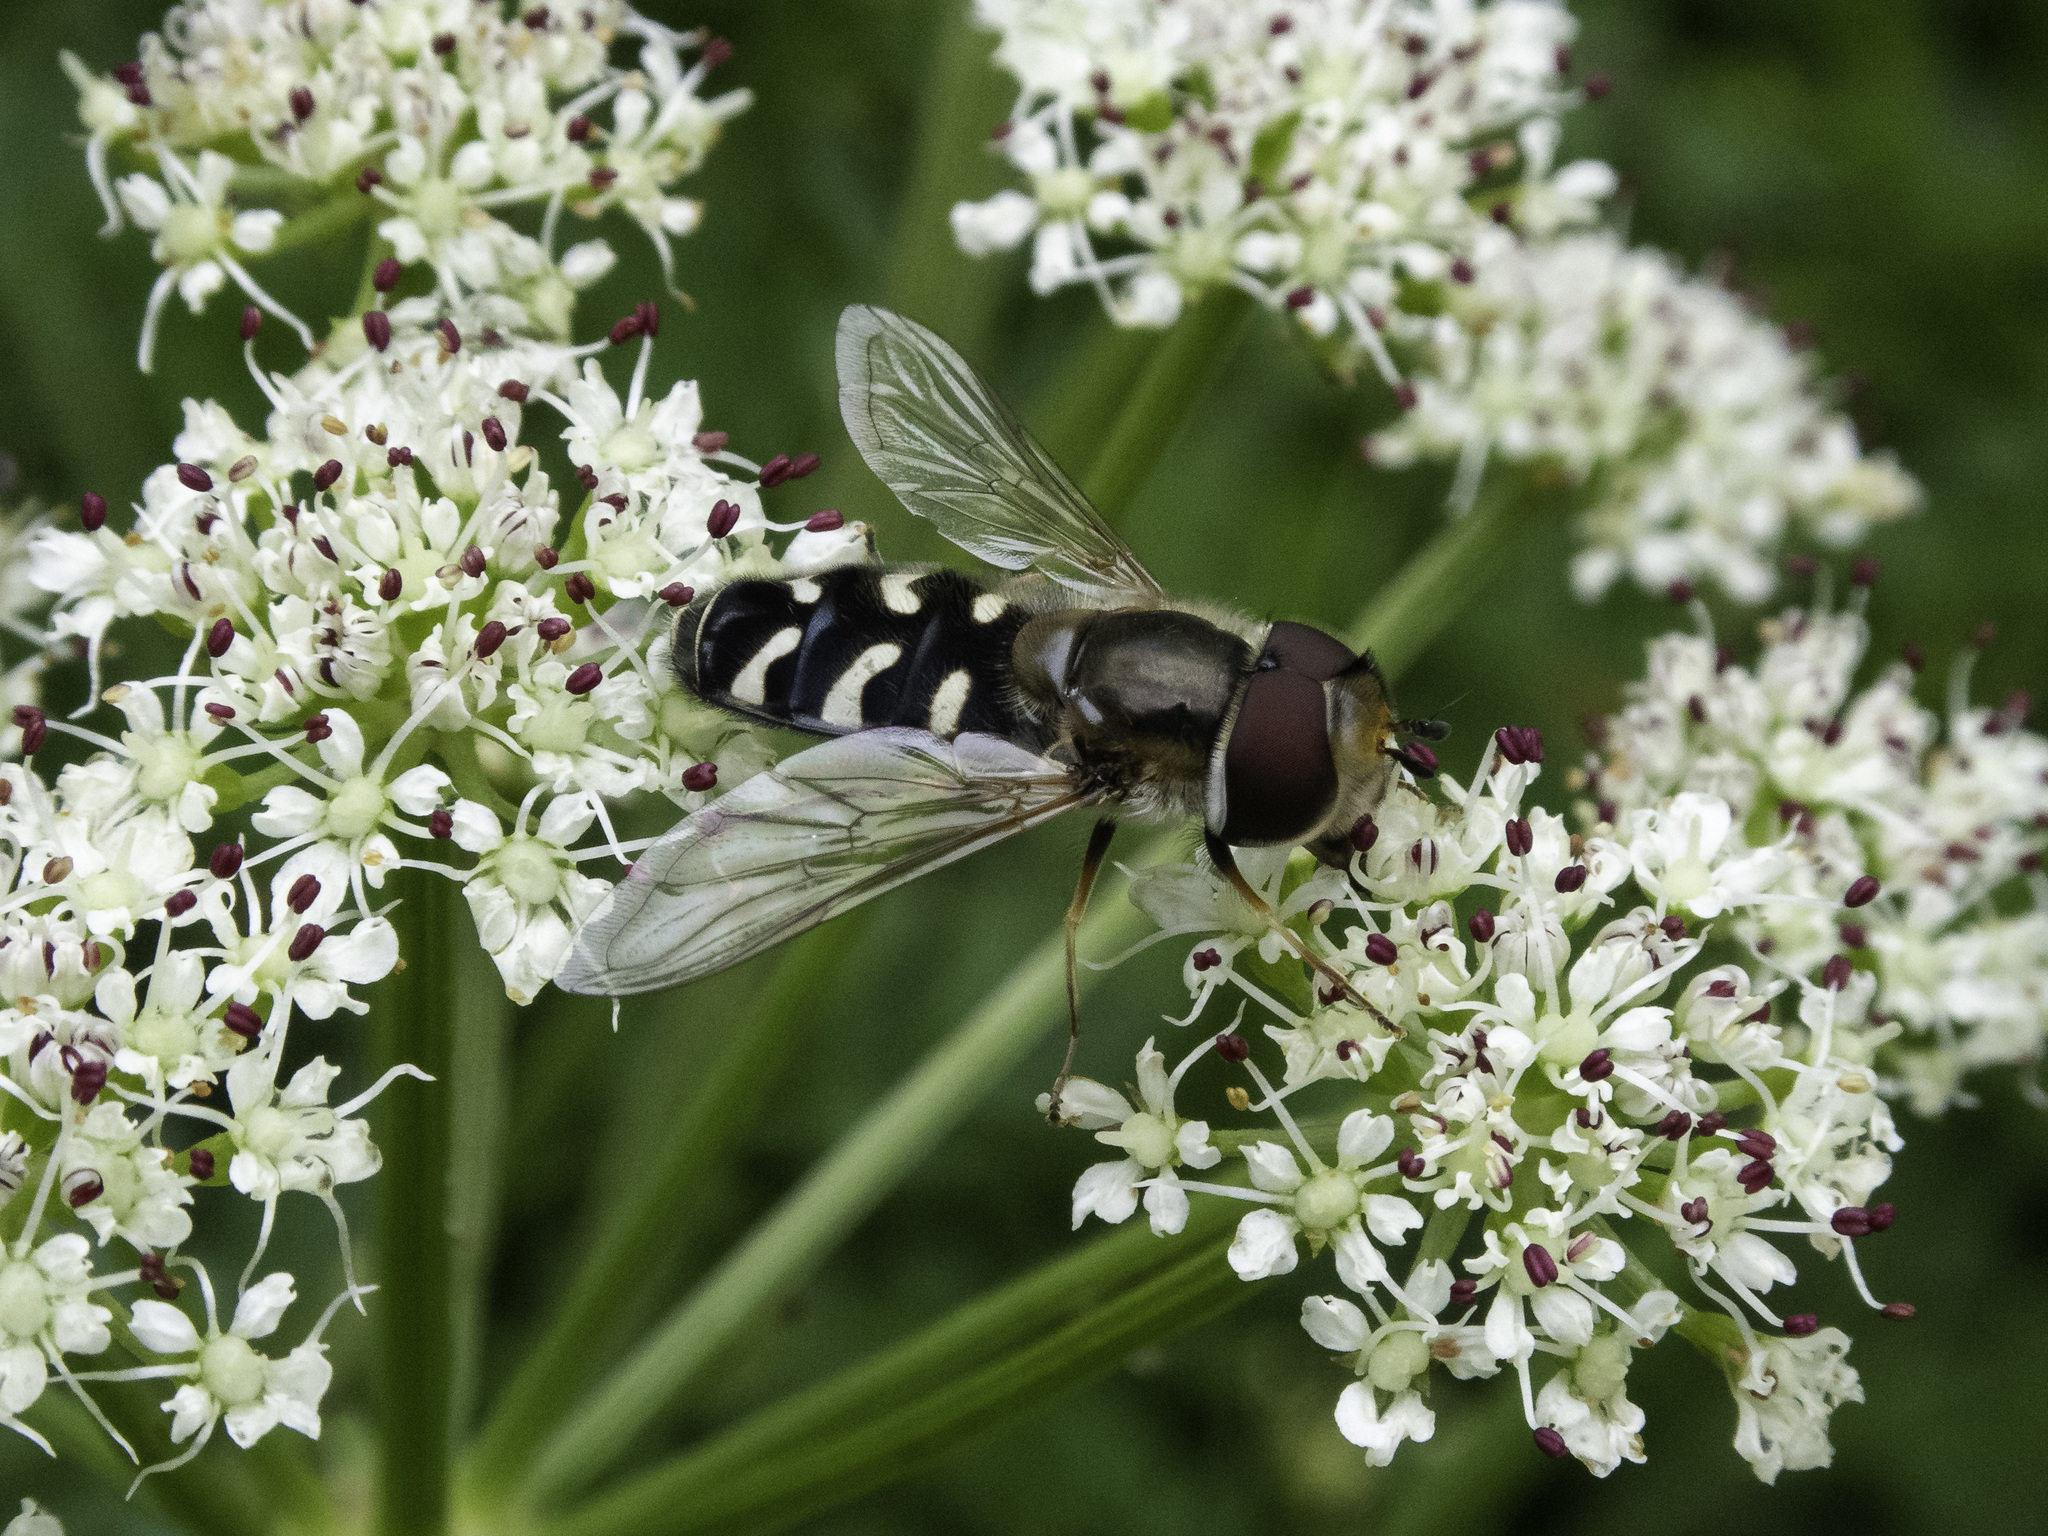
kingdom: Animalia
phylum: Arthropoda
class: Insecta
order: Diptera
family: Syrphidae
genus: Scaeva
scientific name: Scaeva pyrastri
